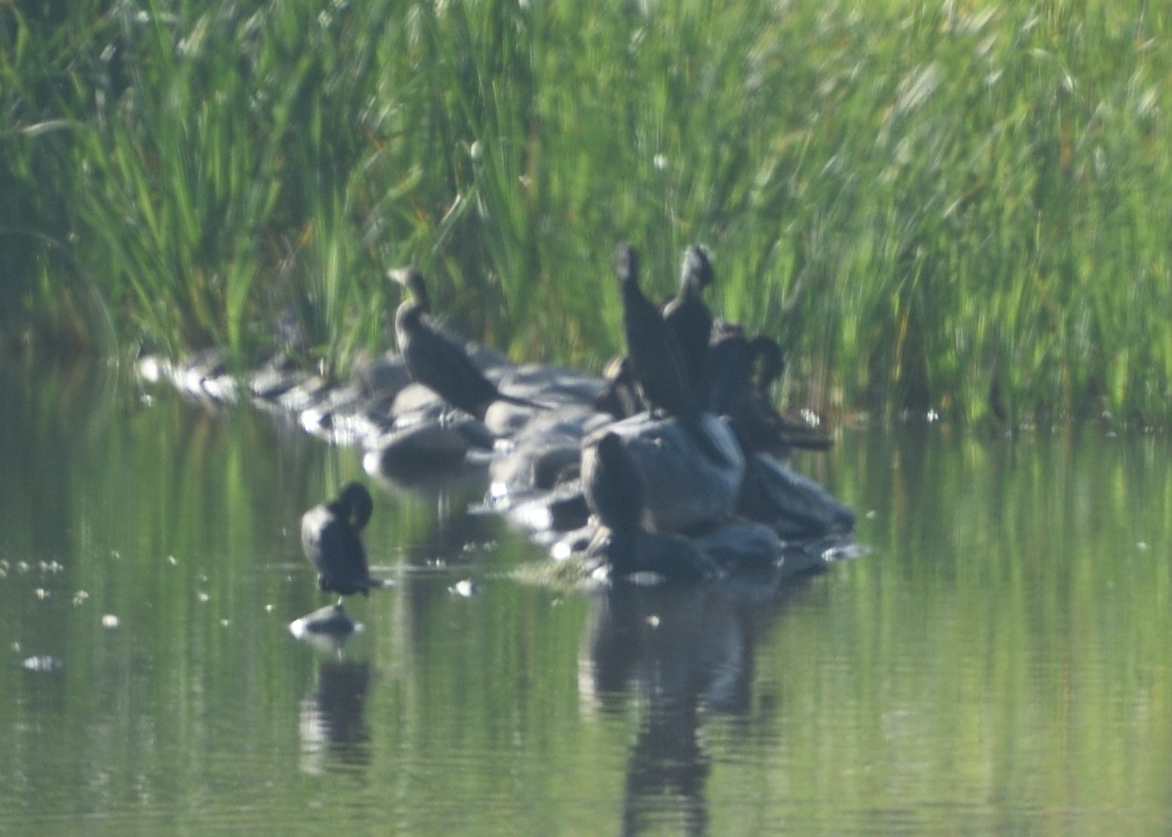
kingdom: Animalia
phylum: Chordata
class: Aves
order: Suliformes
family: Phalacrocoracidae
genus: Phalacrocorax
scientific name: Phalacrocorax brasilianus
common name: Neotropic cormorant
